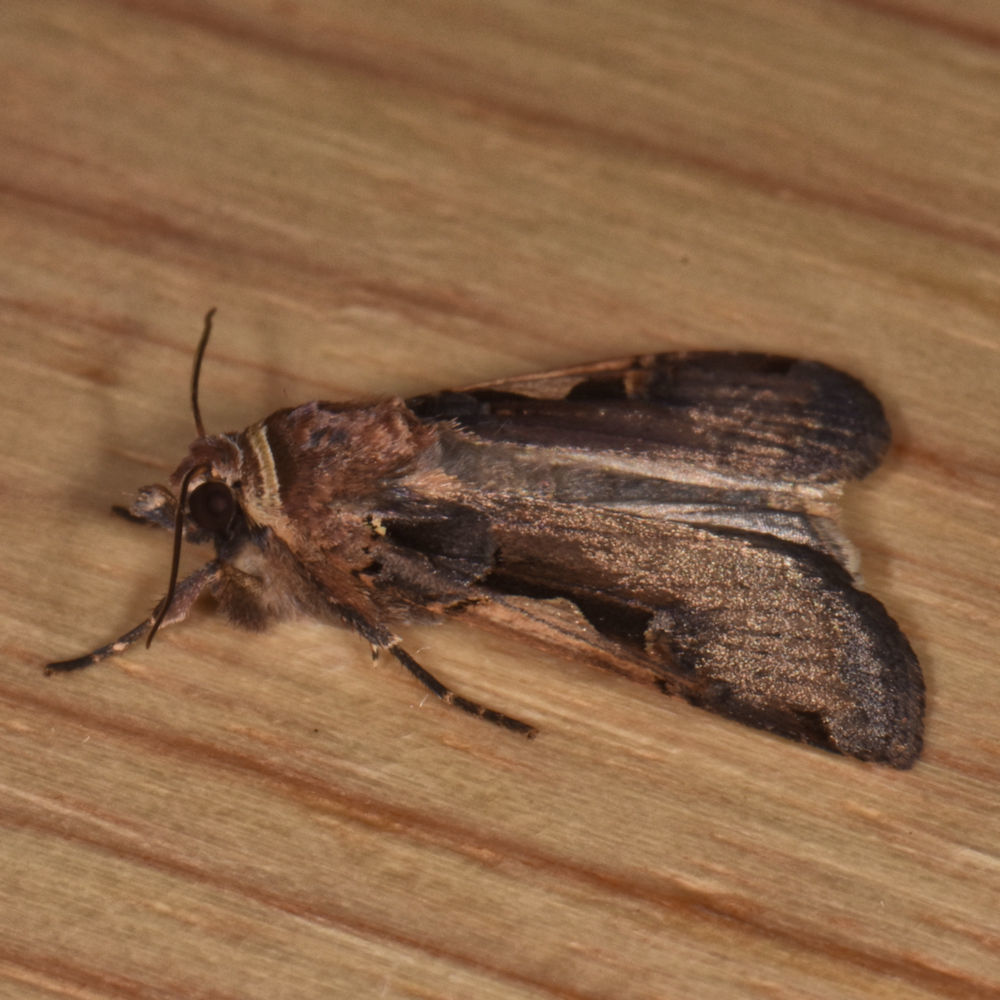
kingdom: Animalia
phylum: Arthropoda
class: Insecta
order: Lepidoptera
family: Noctuidae
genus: Xestia
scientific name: Xestia
